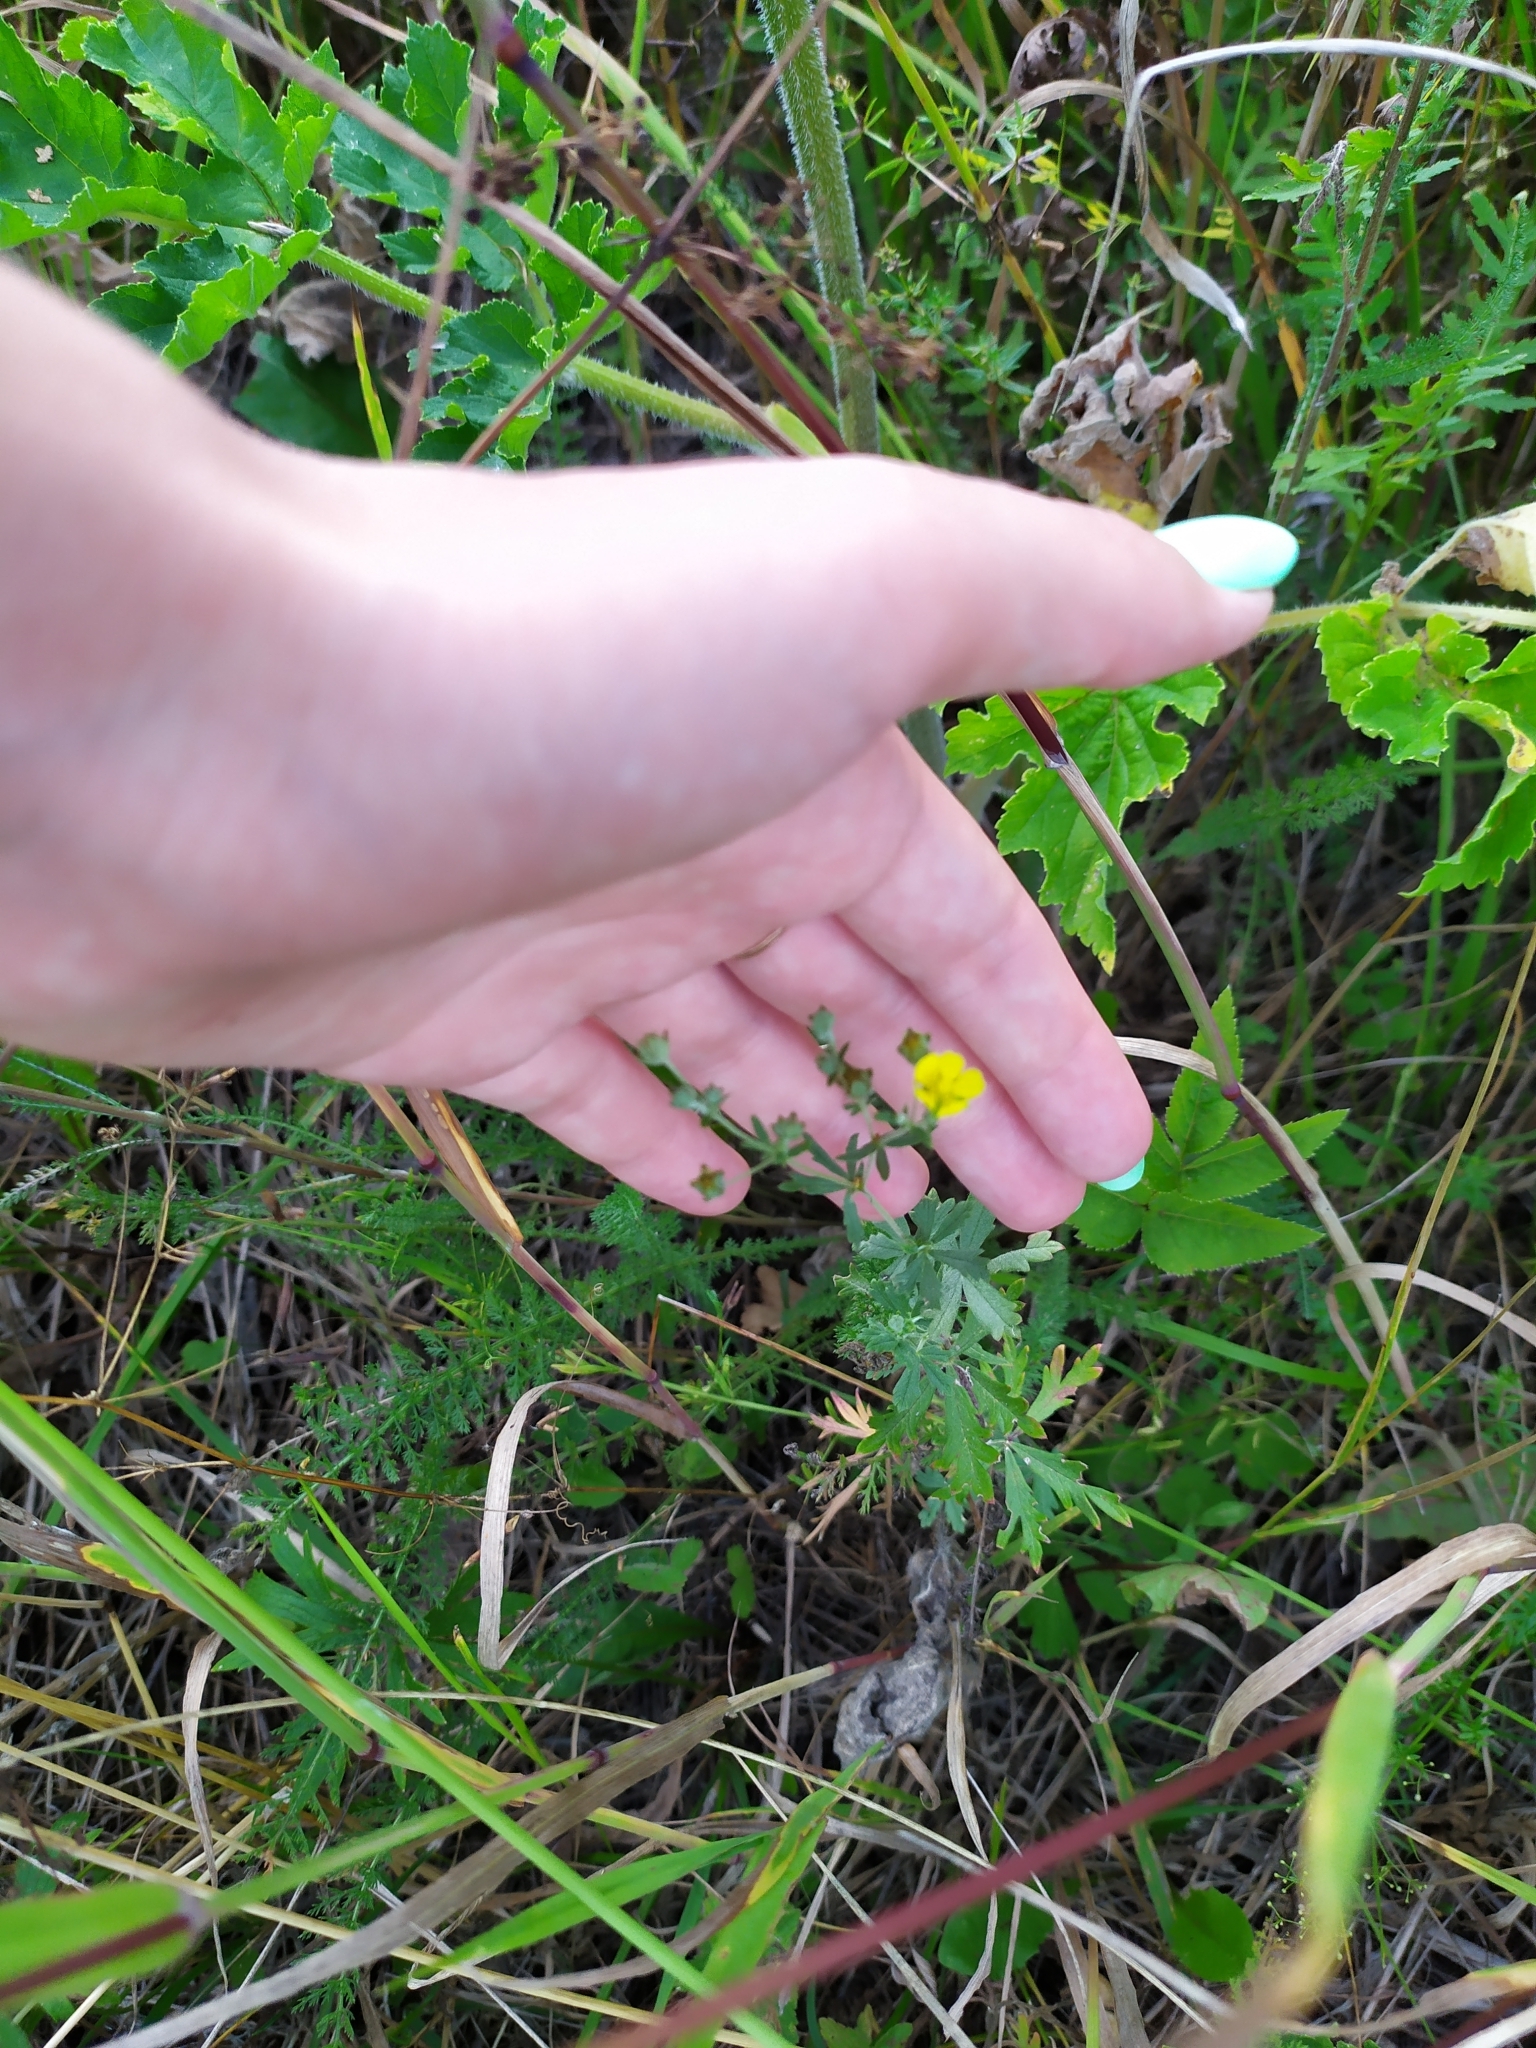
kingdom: Plantae
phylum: Tracheophyta
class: Magnoliopsida
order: Rosales
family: Rosaceae
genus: Potentilla
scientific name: Potentilla argentea
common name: Hoary cinquefoil
